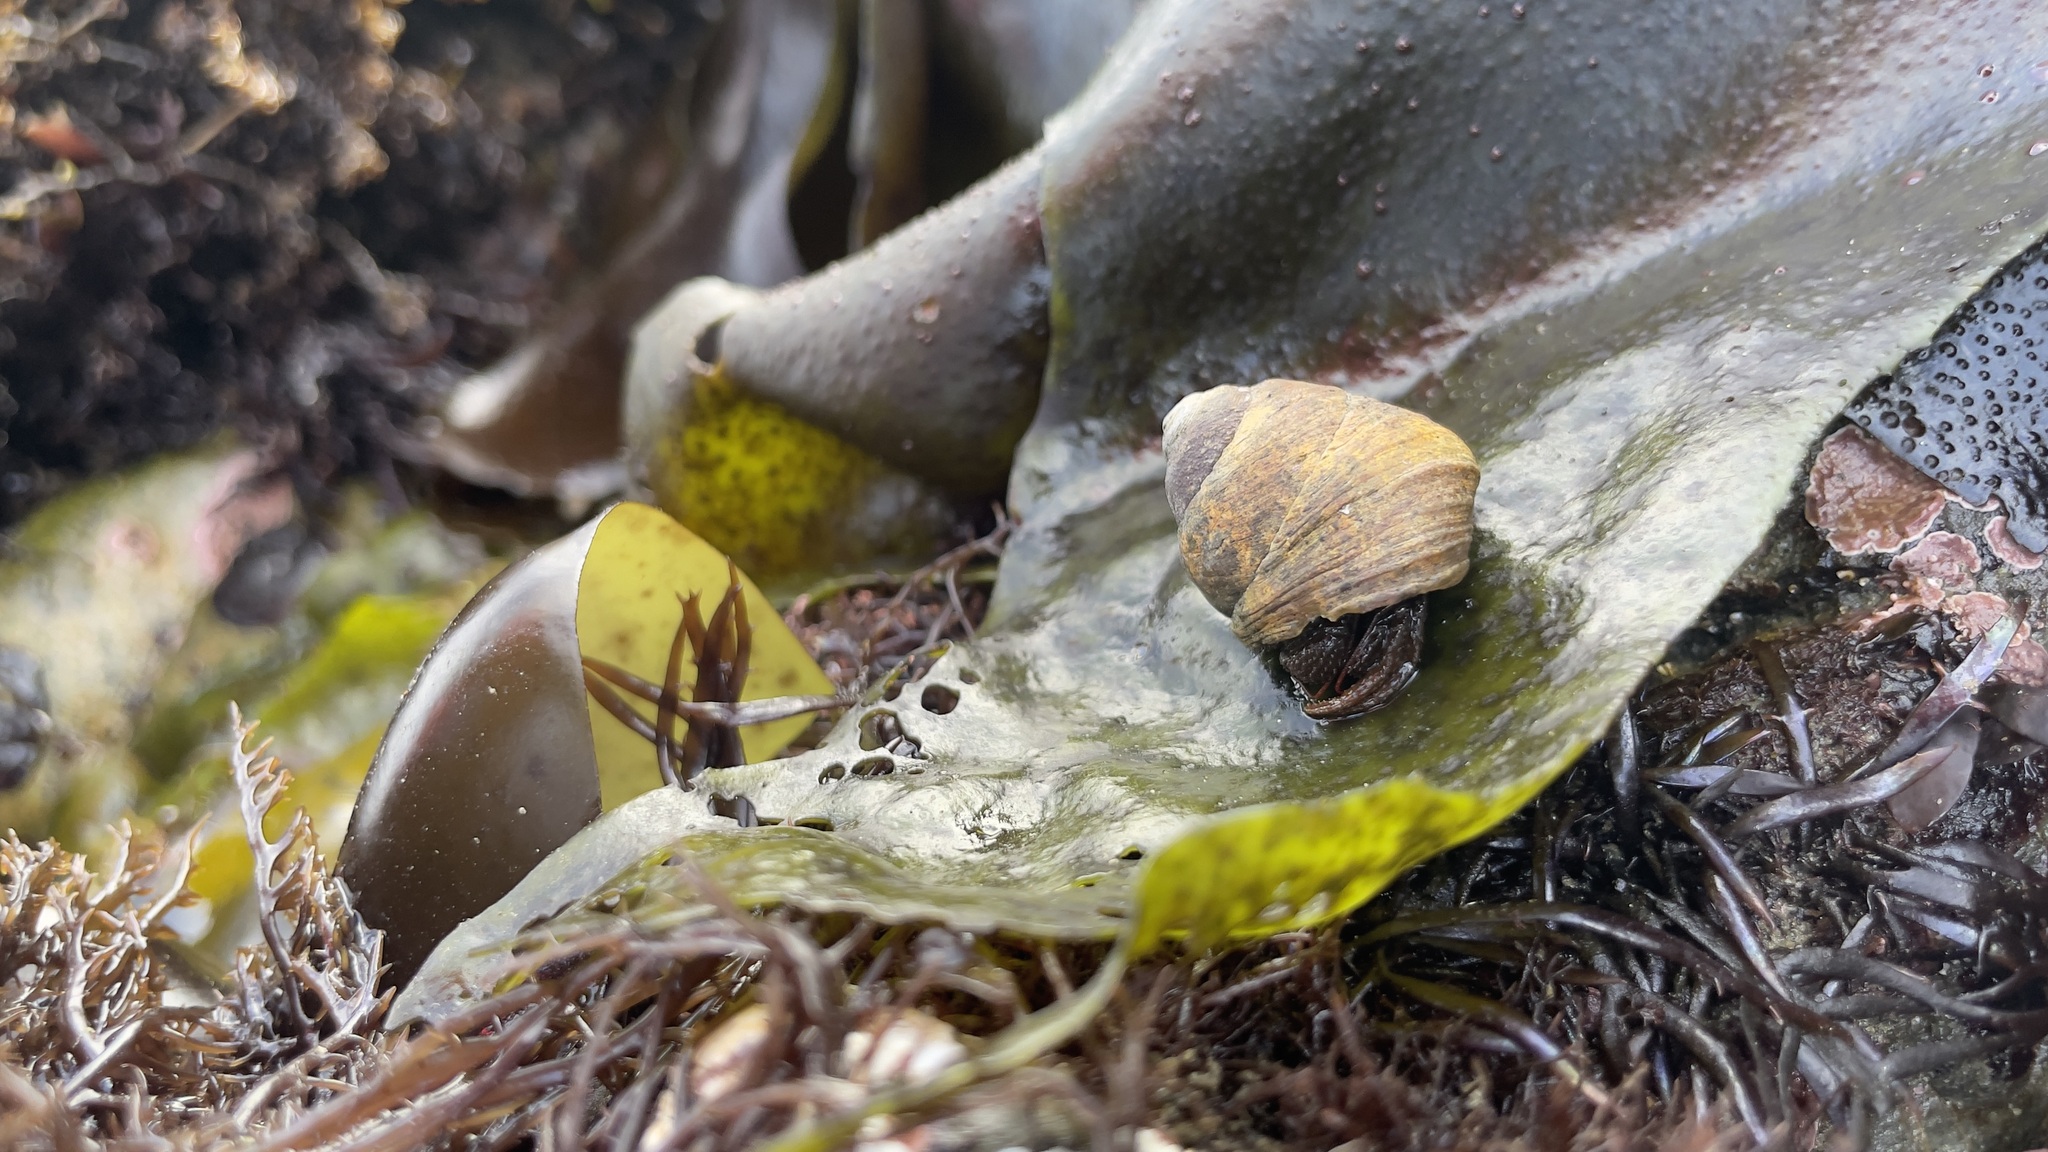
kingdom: Animalia
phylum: Arthropoda
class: Malacostraca
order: Decapoda
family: Paguridae
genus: Pagurus
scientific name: Pagurus granosimanus
